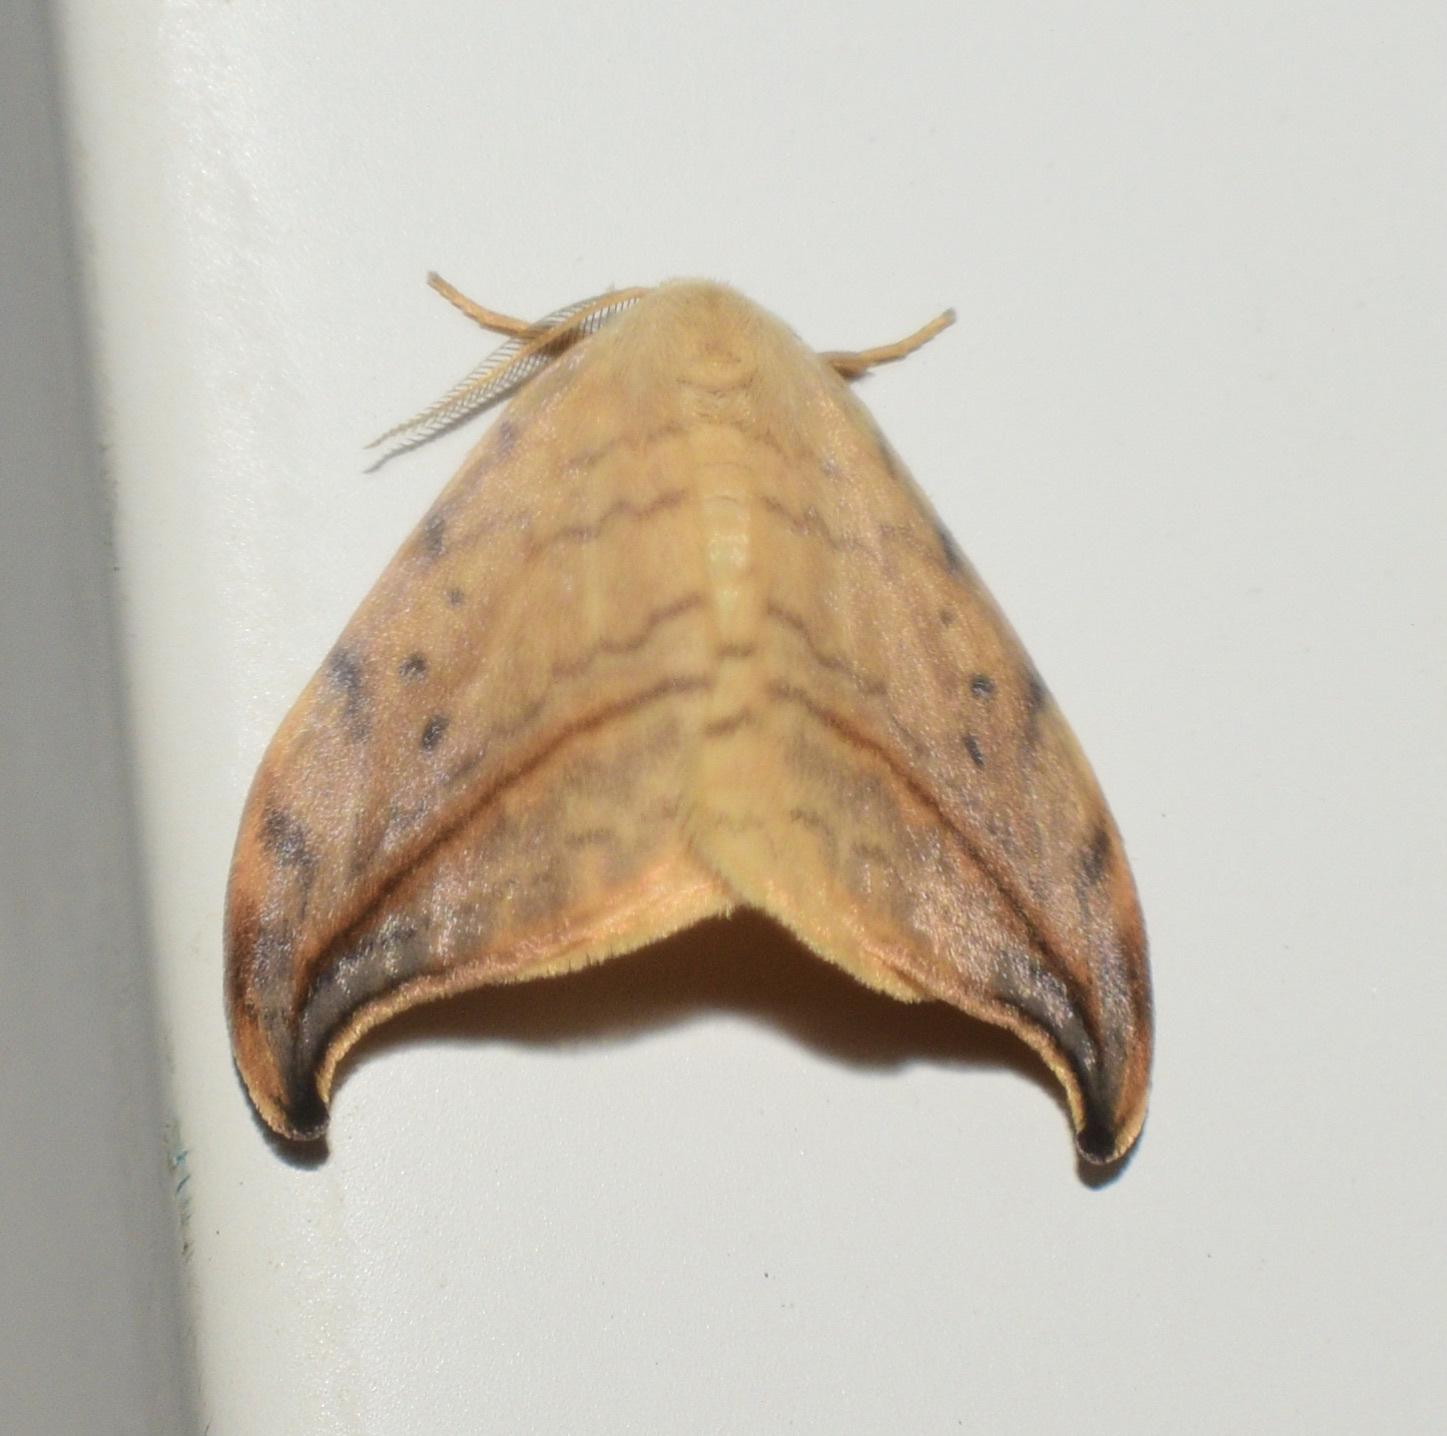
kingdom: Animalia
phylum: Arthropoda
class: Insecta
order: Lepidoptera
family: Drepanidae
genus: Drepana
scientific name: Drepana arcuata
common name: Arched hooktip moth
